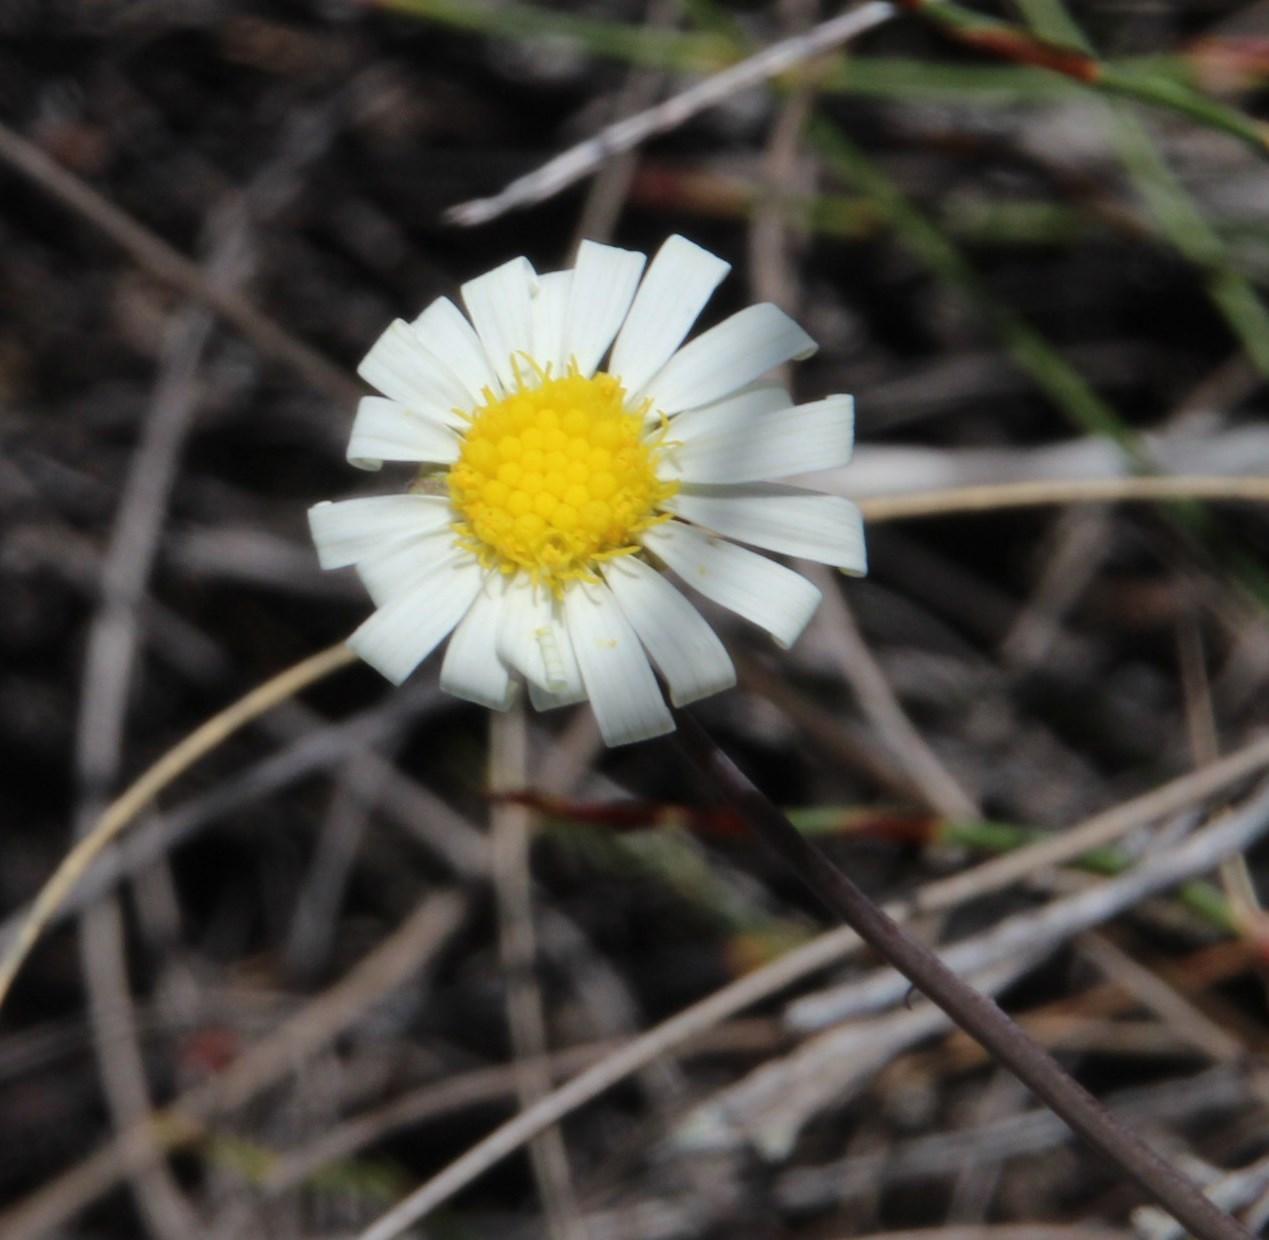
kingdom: Plantae
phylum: Tracheophyta
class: Magnoliopsida
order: Asterales
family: Asteraceae
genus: Crassothonna
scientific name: Crassothonna alba
